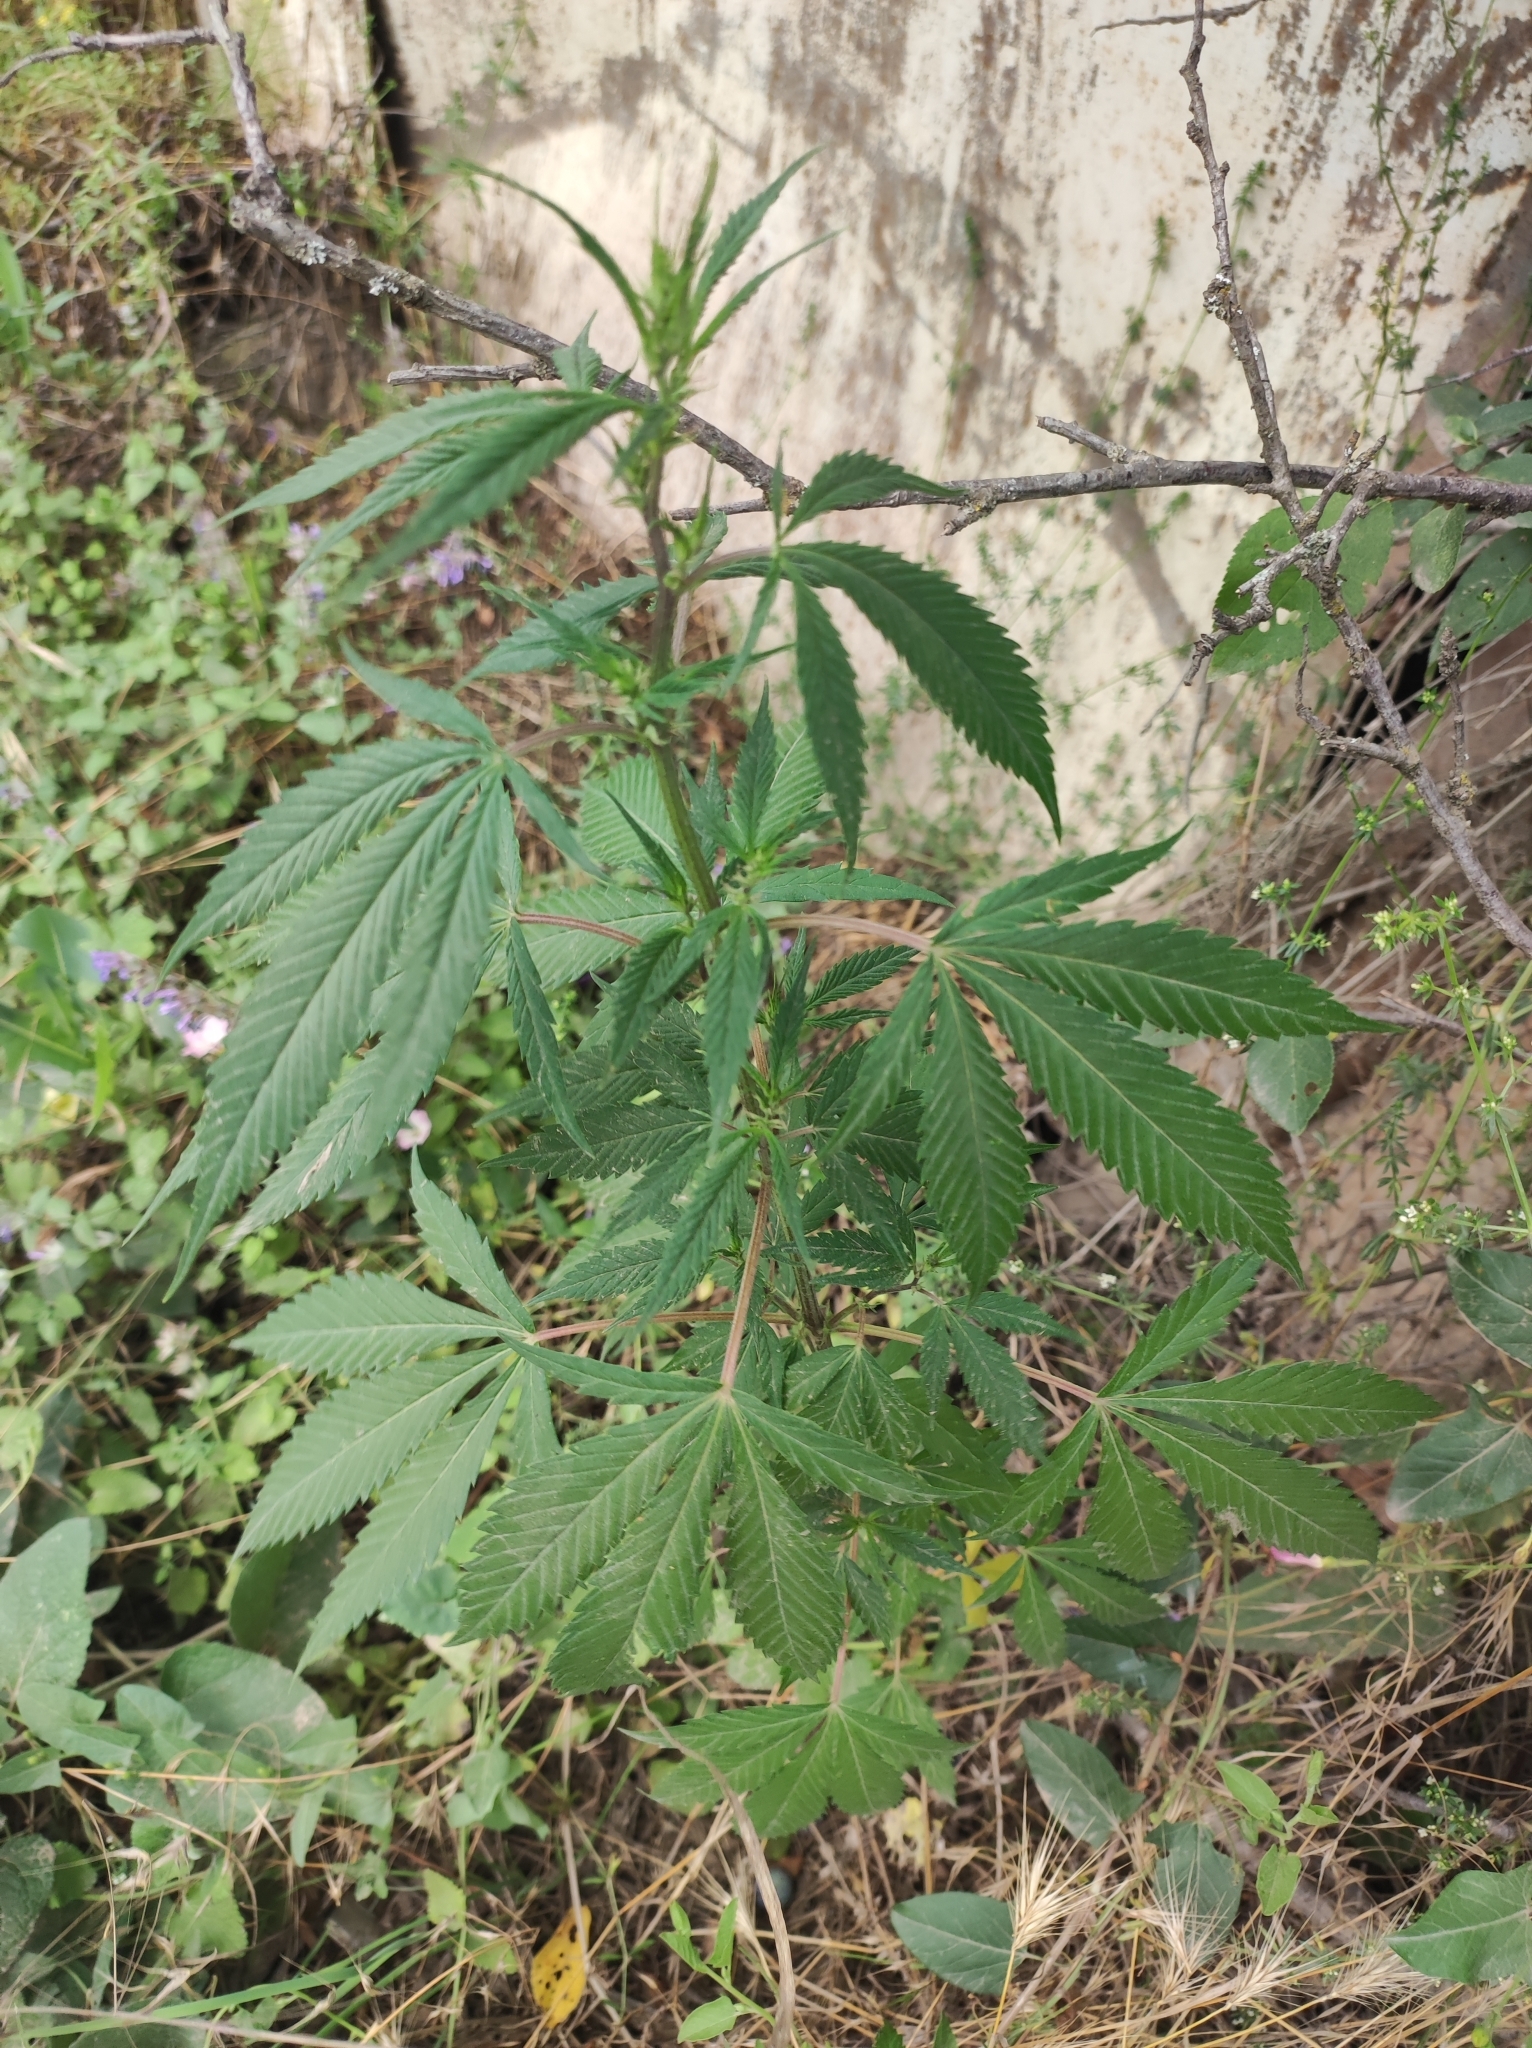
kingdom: Plantae
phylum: Tracheophyta
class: Magnoliopsida
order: Rosales
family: Cannabaceae
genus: Cannabis
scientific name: Cannabis sativa
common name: Hemp
